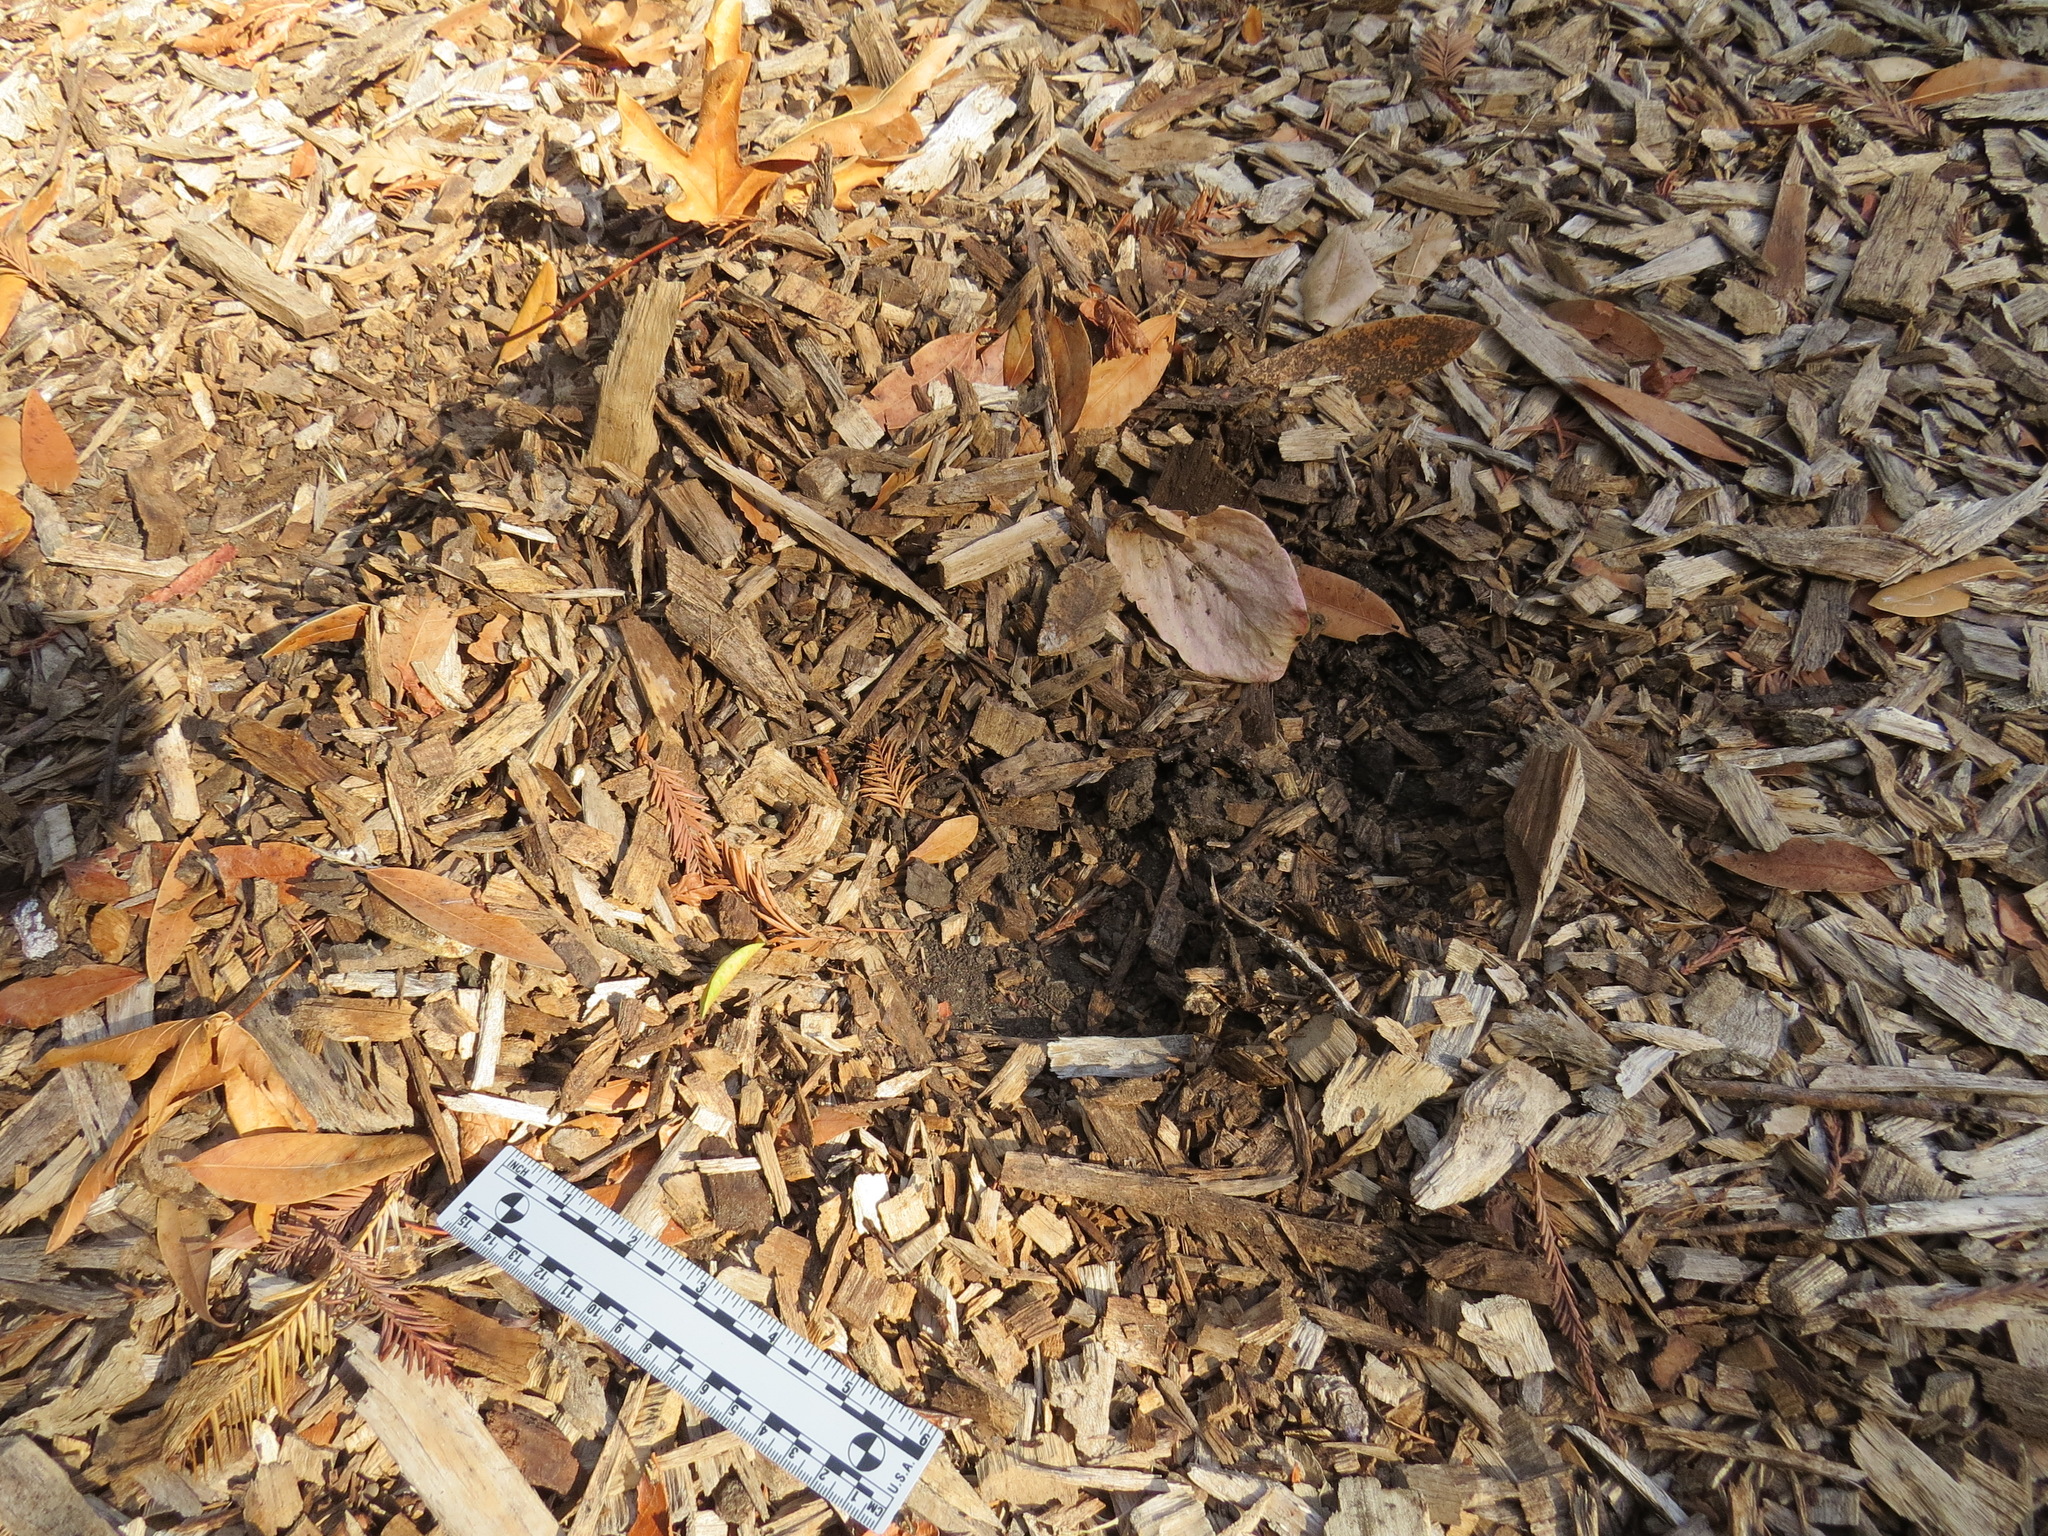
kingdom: Animalia
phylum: Chordata
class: Mammalia
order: Carnivora
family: Felidae
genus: Puma
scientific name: Puma concolor
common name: Puma
